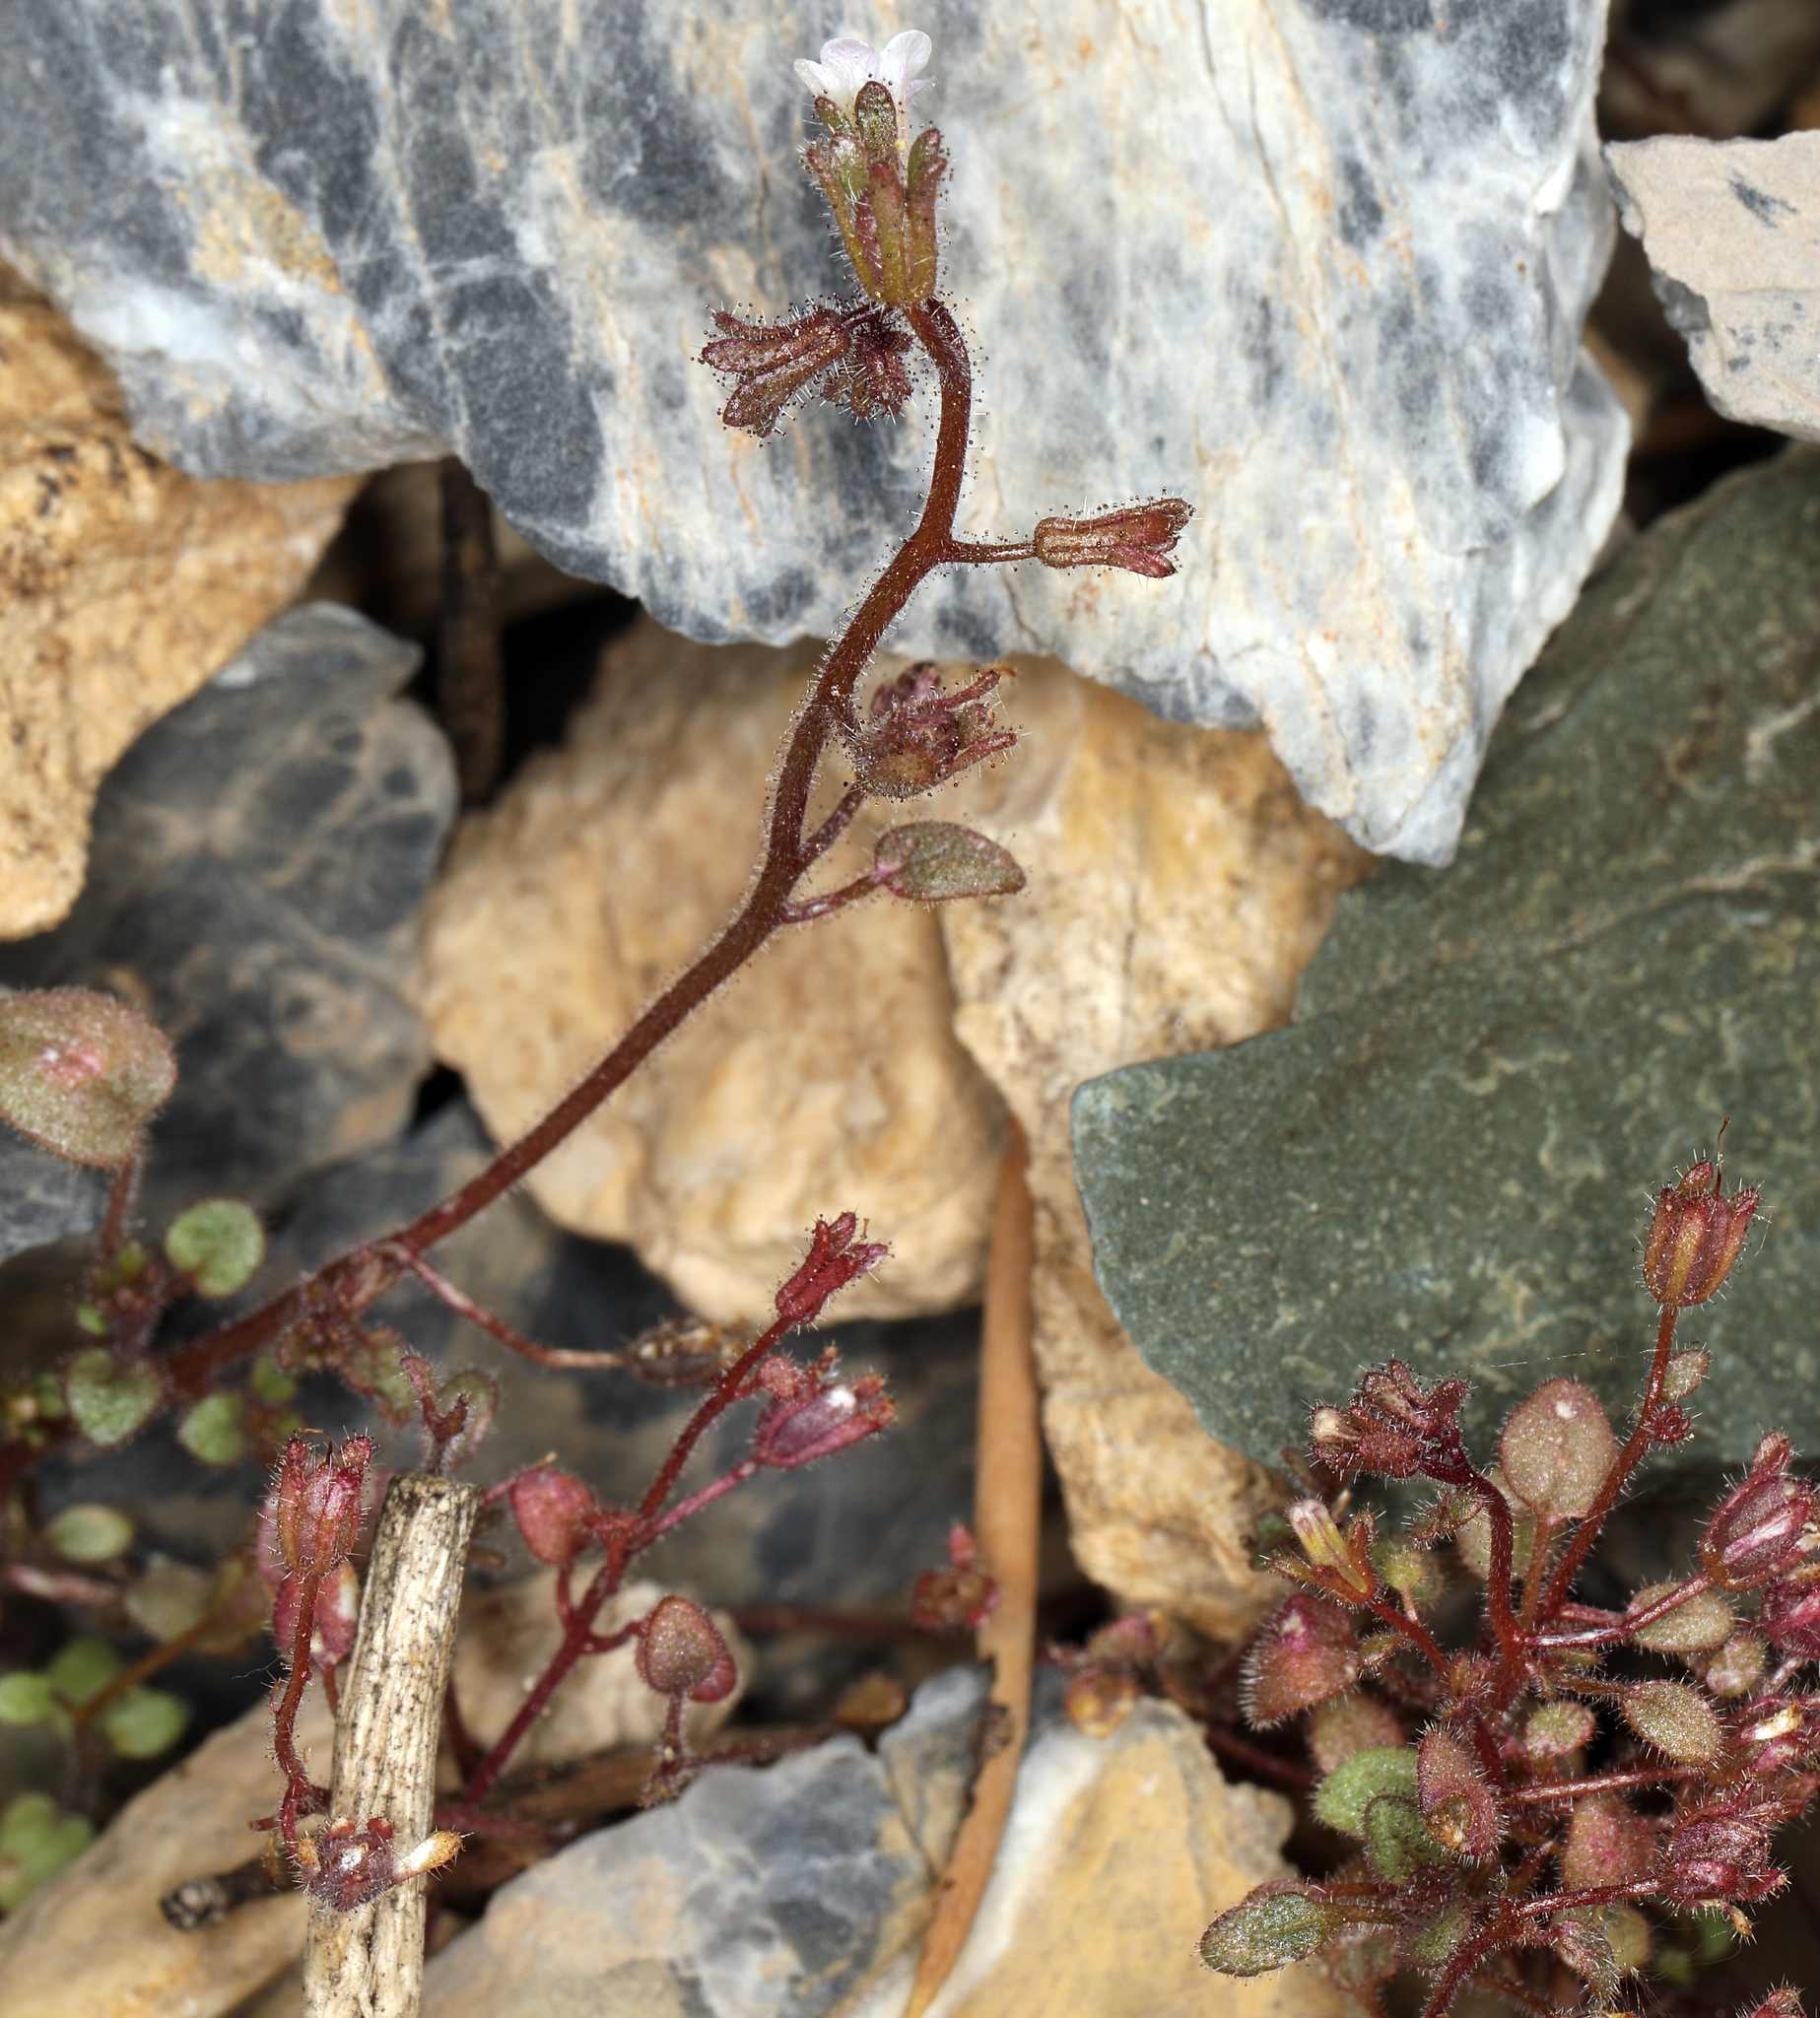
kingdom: Plantae
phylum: Tracheophyta
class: Magnoliopsida
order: Boraginales
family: Hydrophyllaceae
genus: Phacelia
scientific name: Phacelia barnebyana
